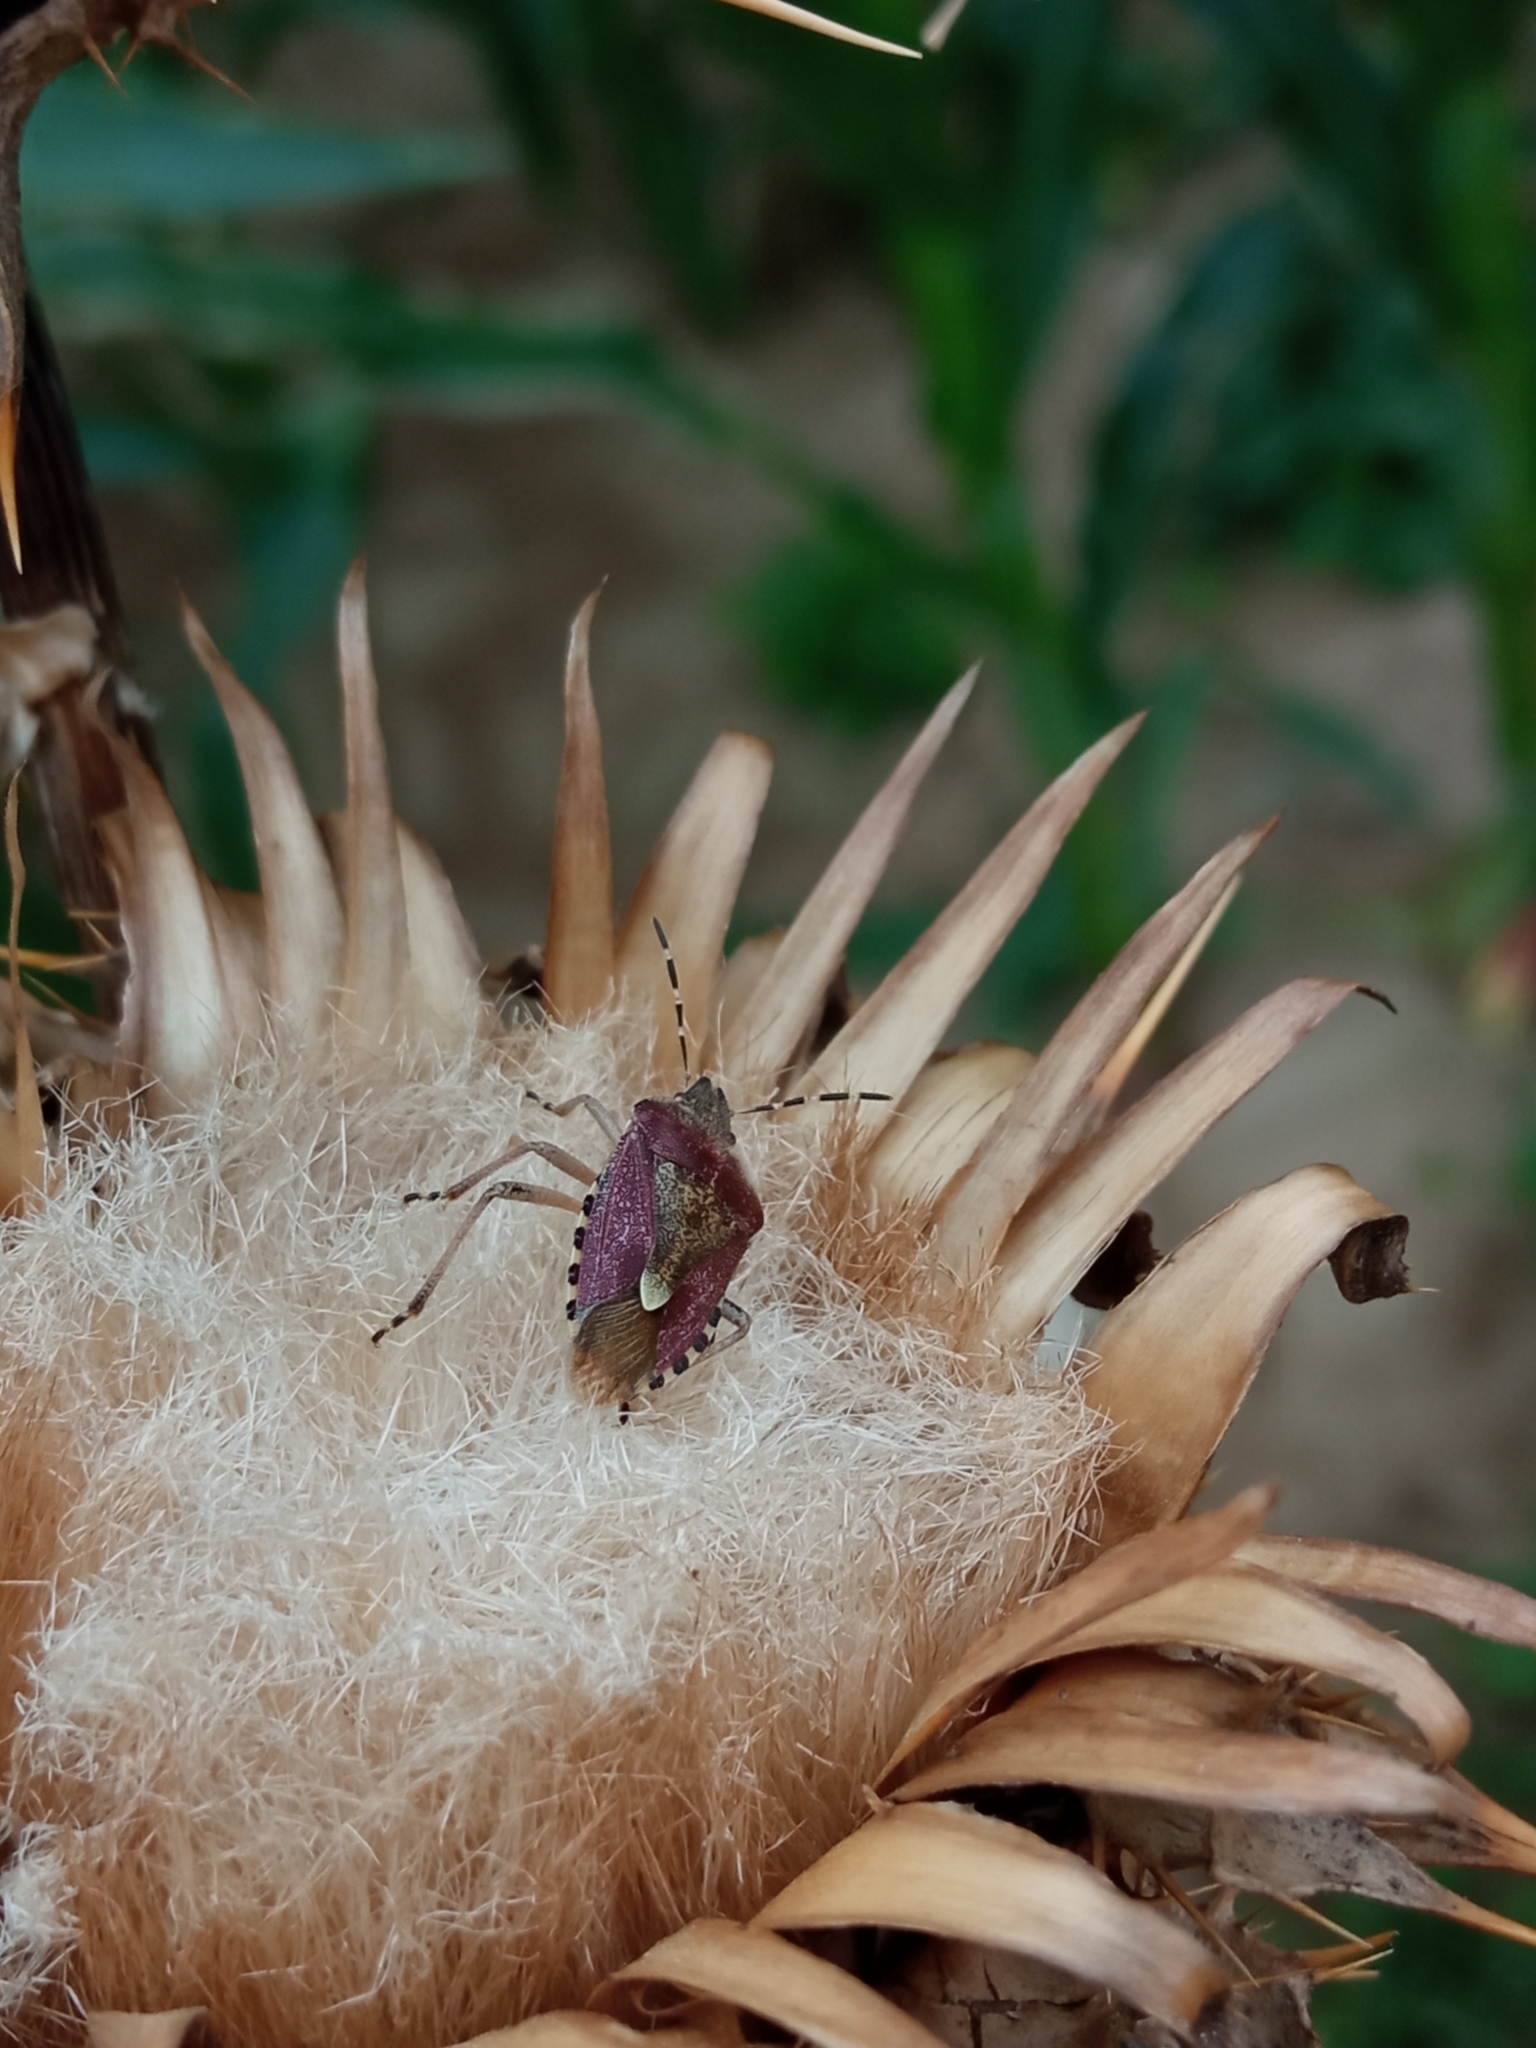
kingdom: Animalia
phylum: Arthropoda
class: Insecta
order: Hemiptera
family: Pentatomidae
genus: Dolycoris
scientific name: Dolycoris baccarum
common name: Sloe bug
